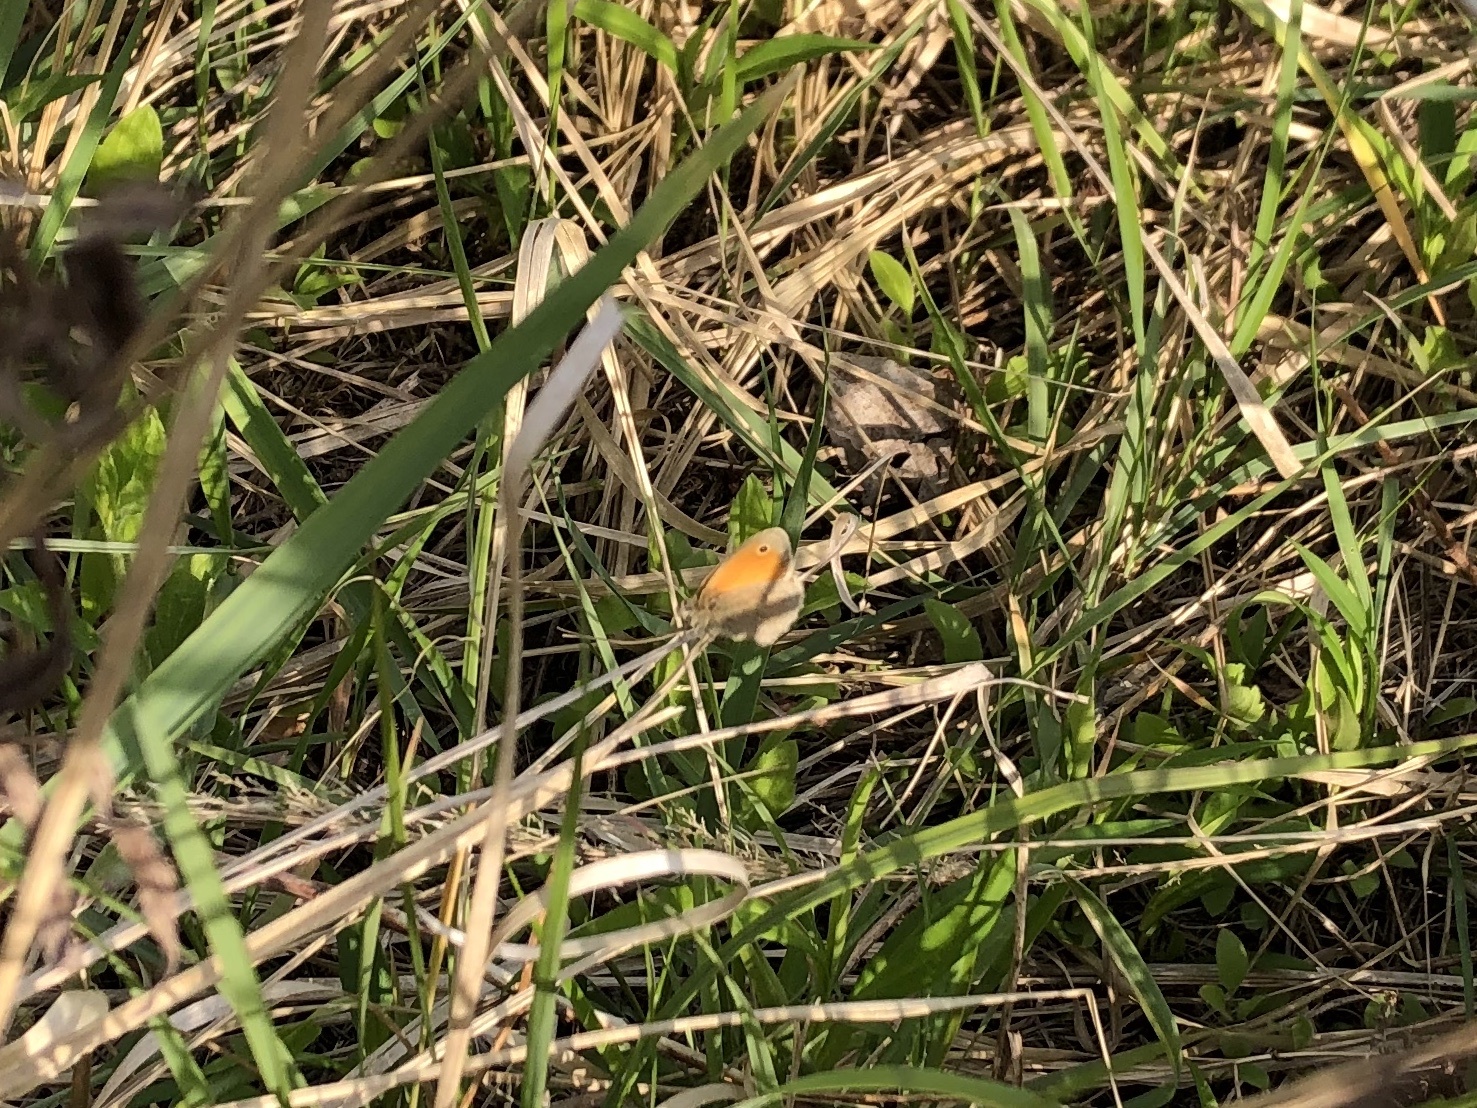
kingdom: Animalia
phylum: Arthropoda
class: Insecta
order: Lepidoptera
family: Nymphalidae
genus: Coenonympha
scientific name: Coenonympha pamphilus
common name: Small heath
